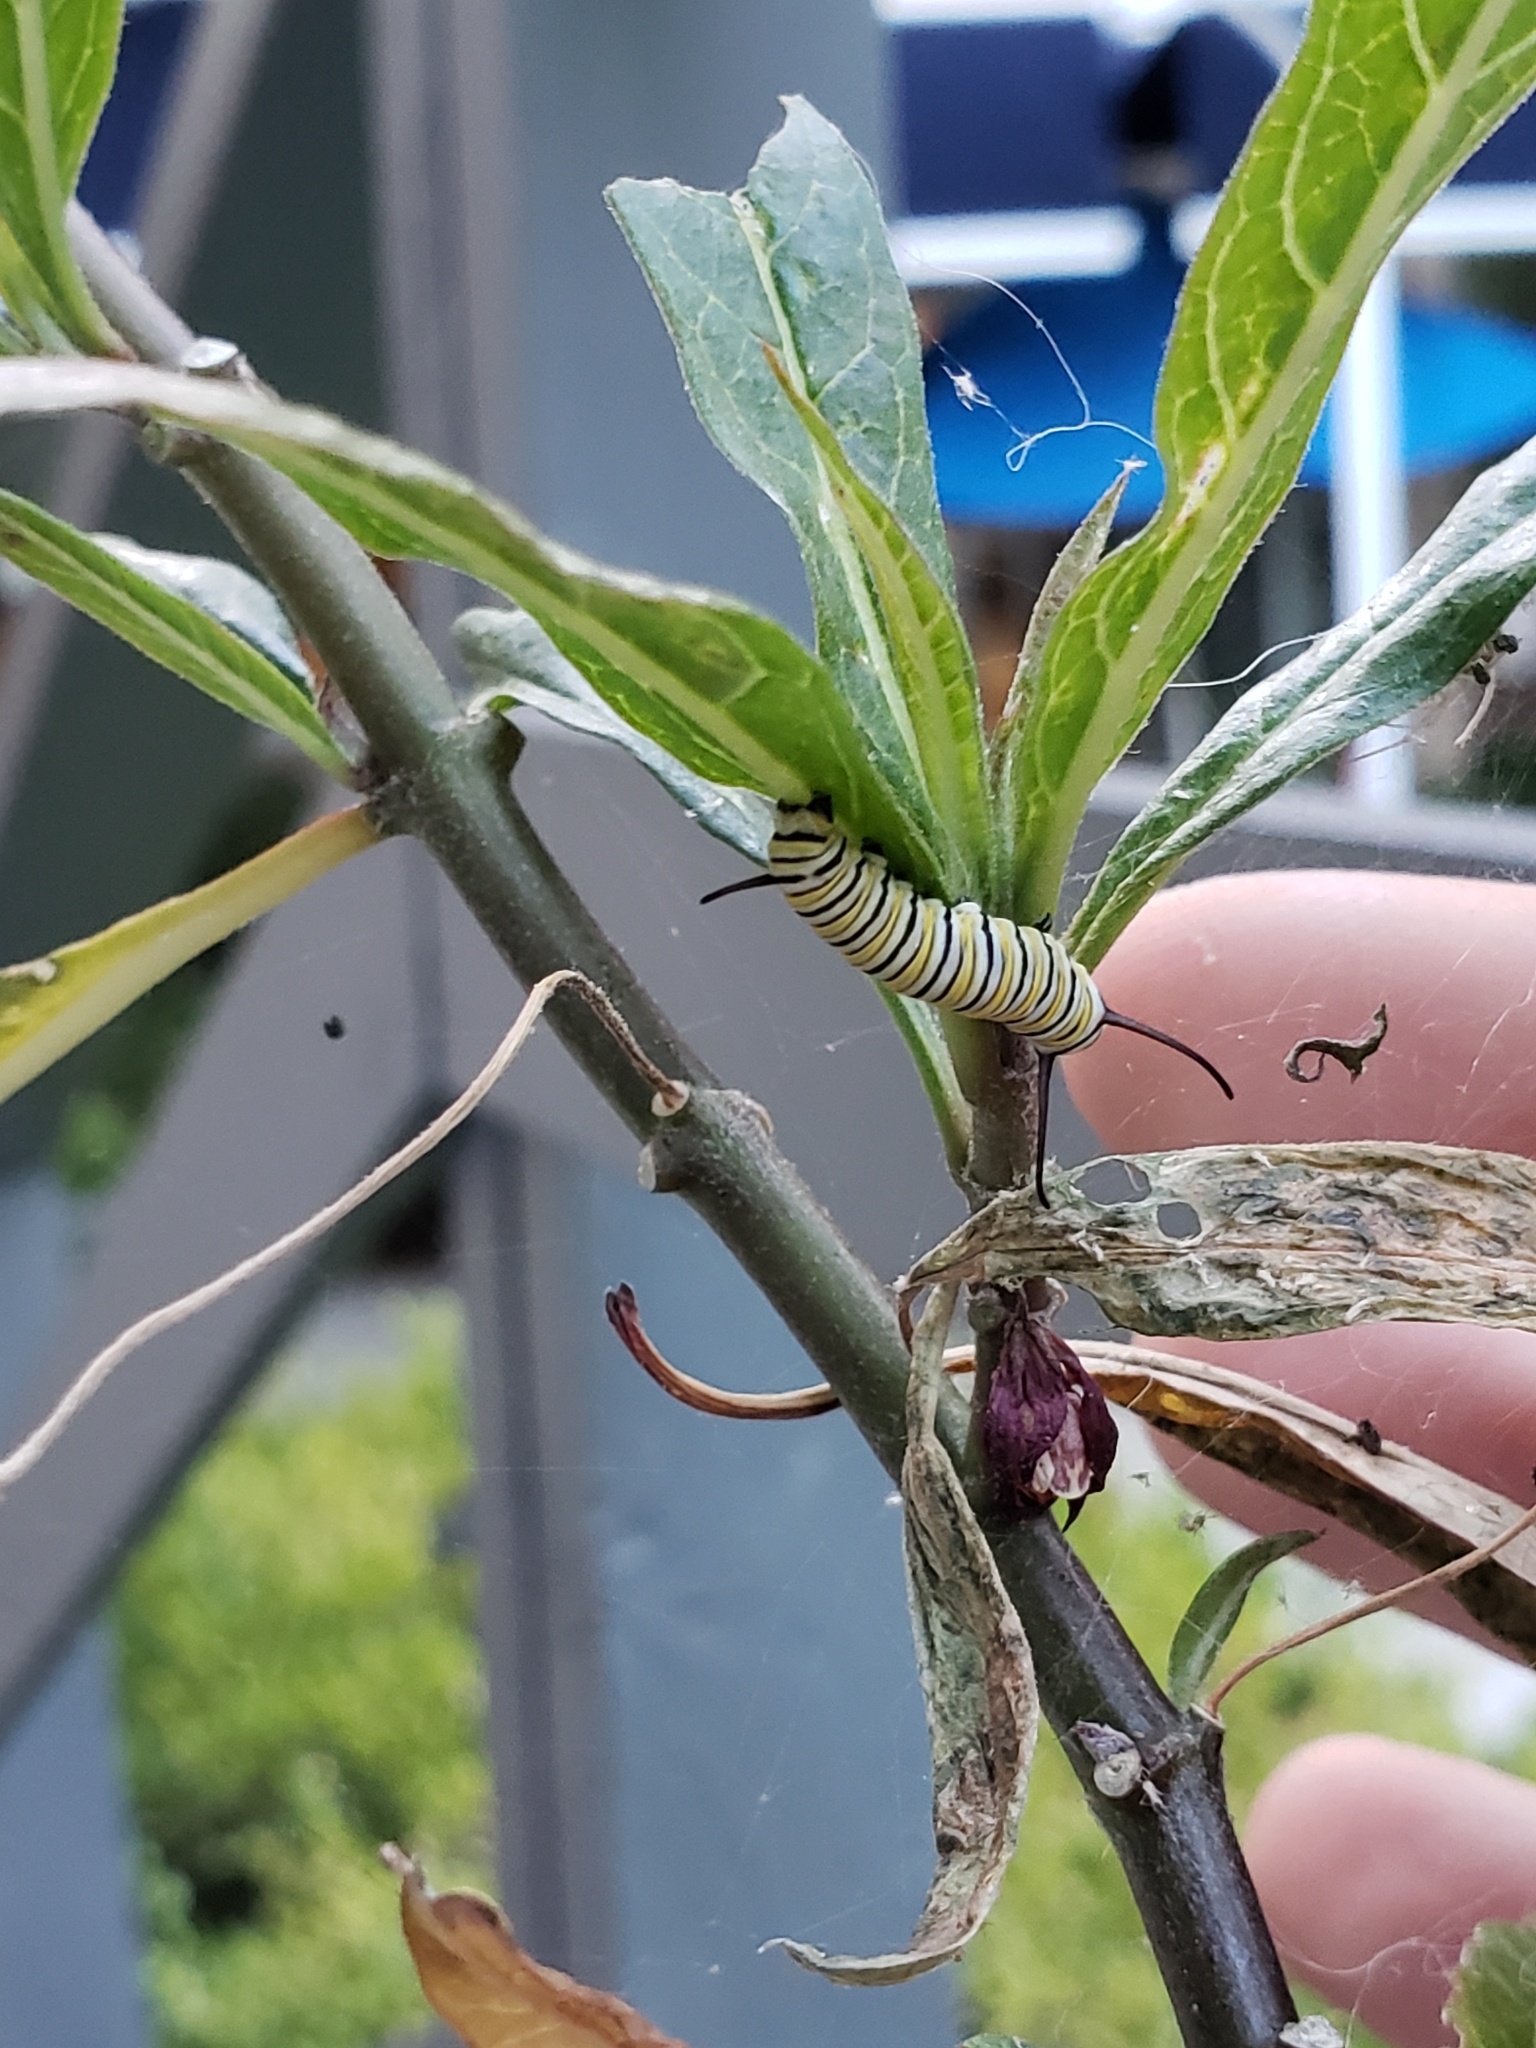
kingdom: Animalia
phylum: Arthropoda
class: Insecta
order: Lepidoptera
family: Nymphalidae
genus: Danaus
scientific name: Danaus plexippus
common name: Monarch
